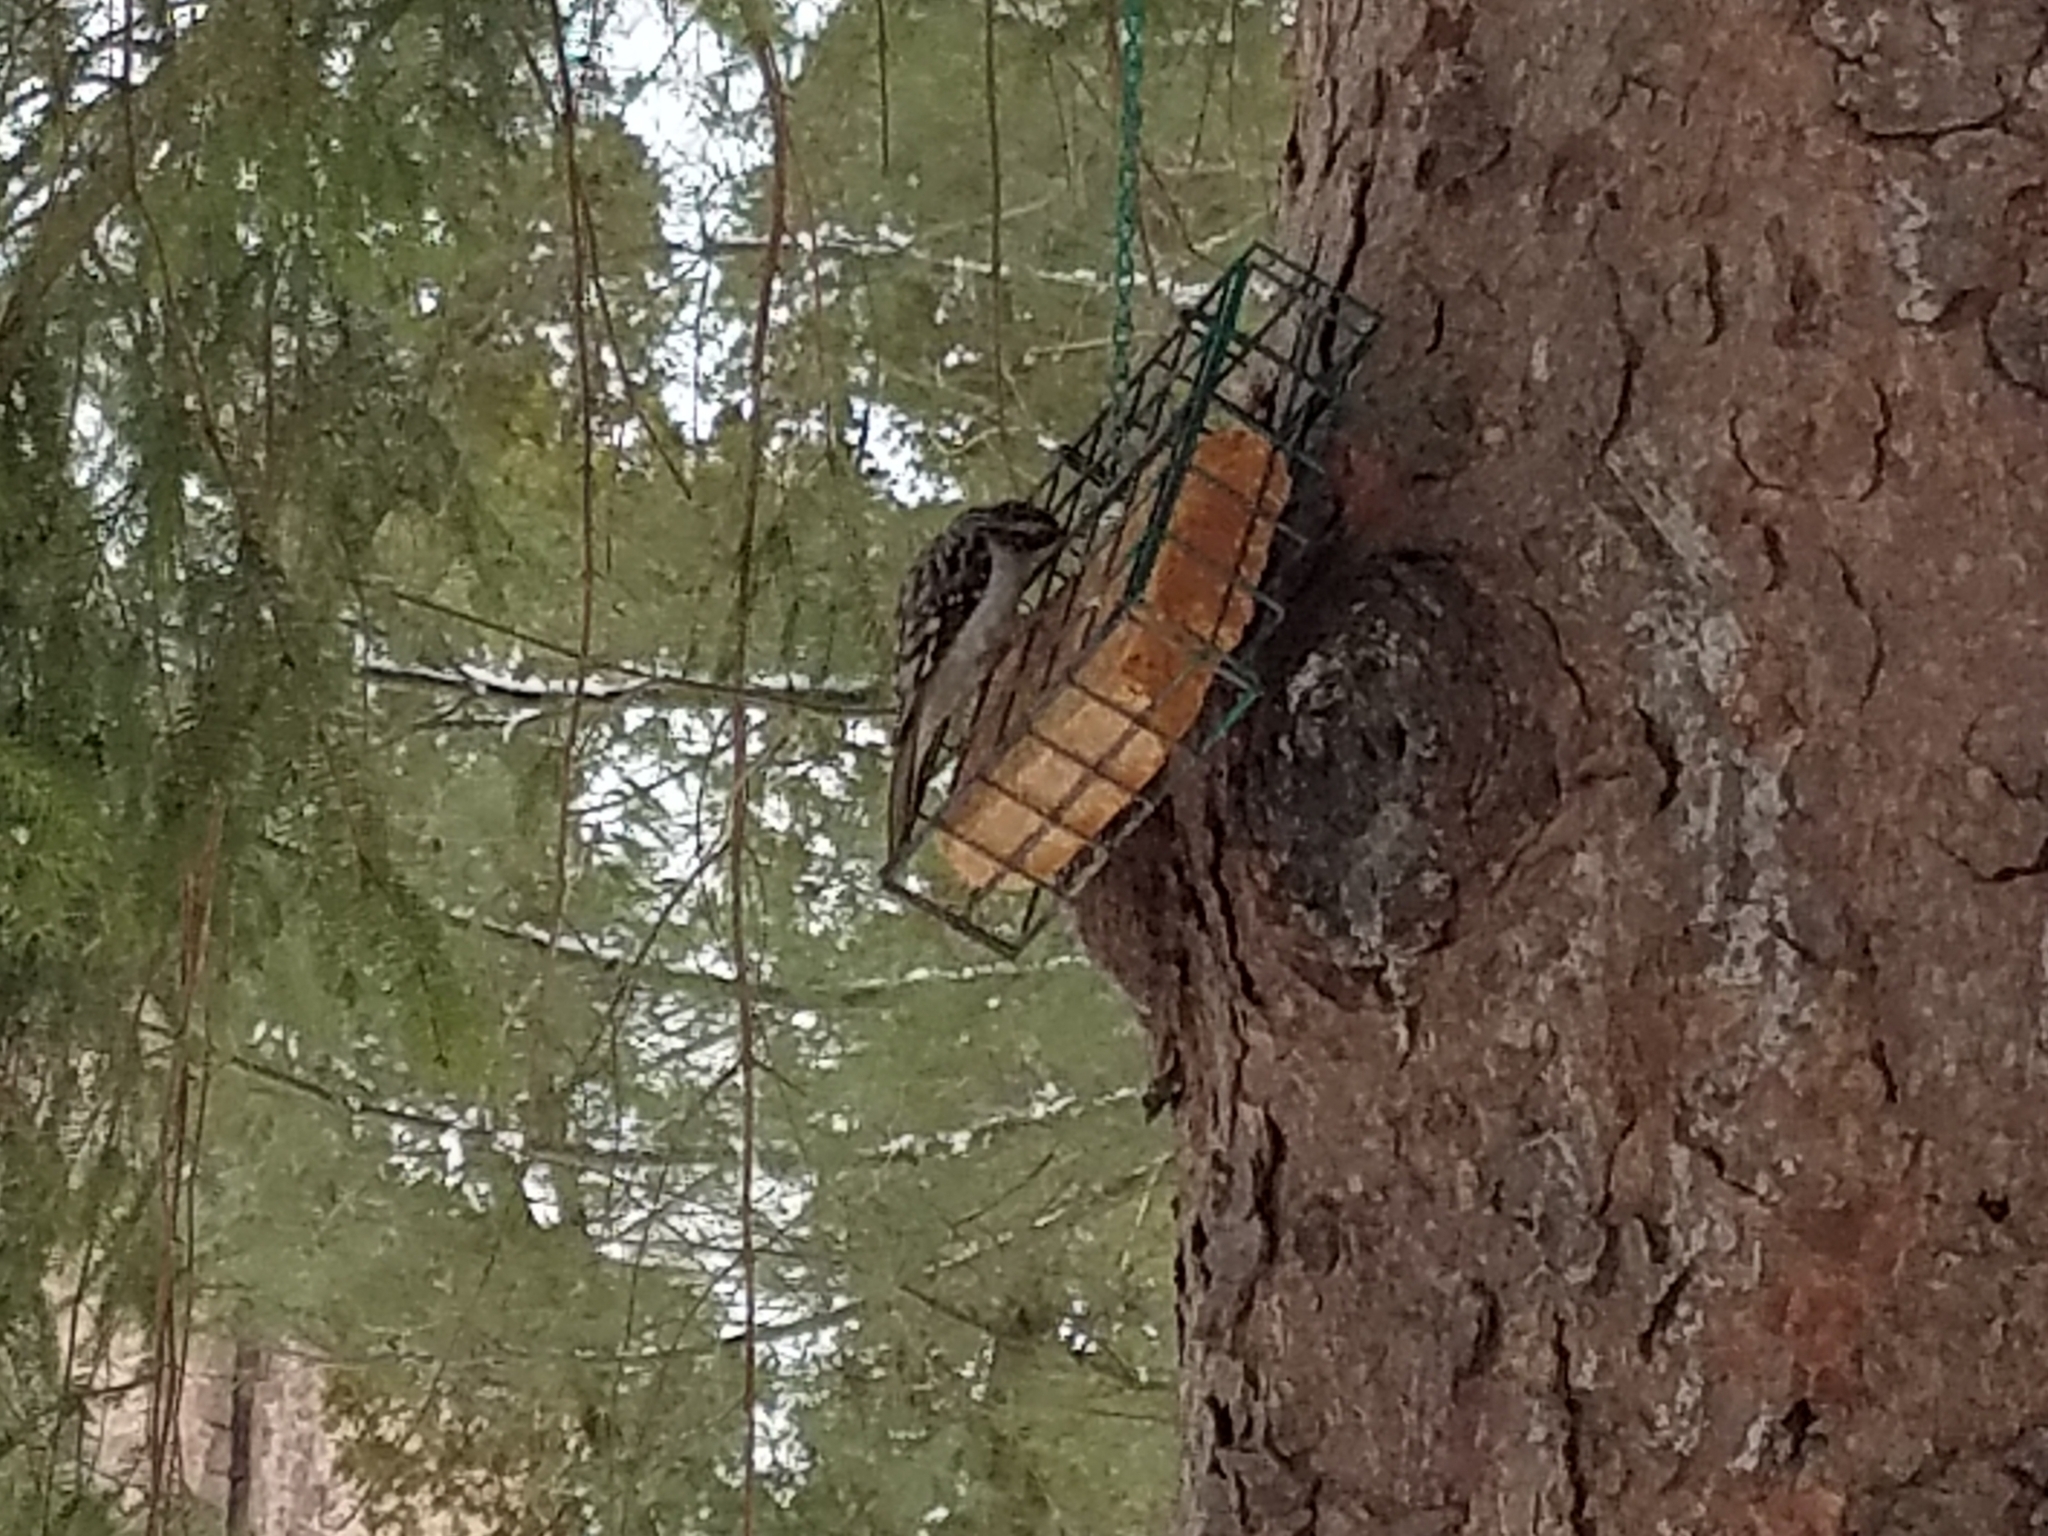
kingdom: Animalia
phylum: Chordata
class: Aves
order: Passeriformes
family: Certhiidae
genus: Certhia
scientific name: Certhia americana
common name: Brown creeper
